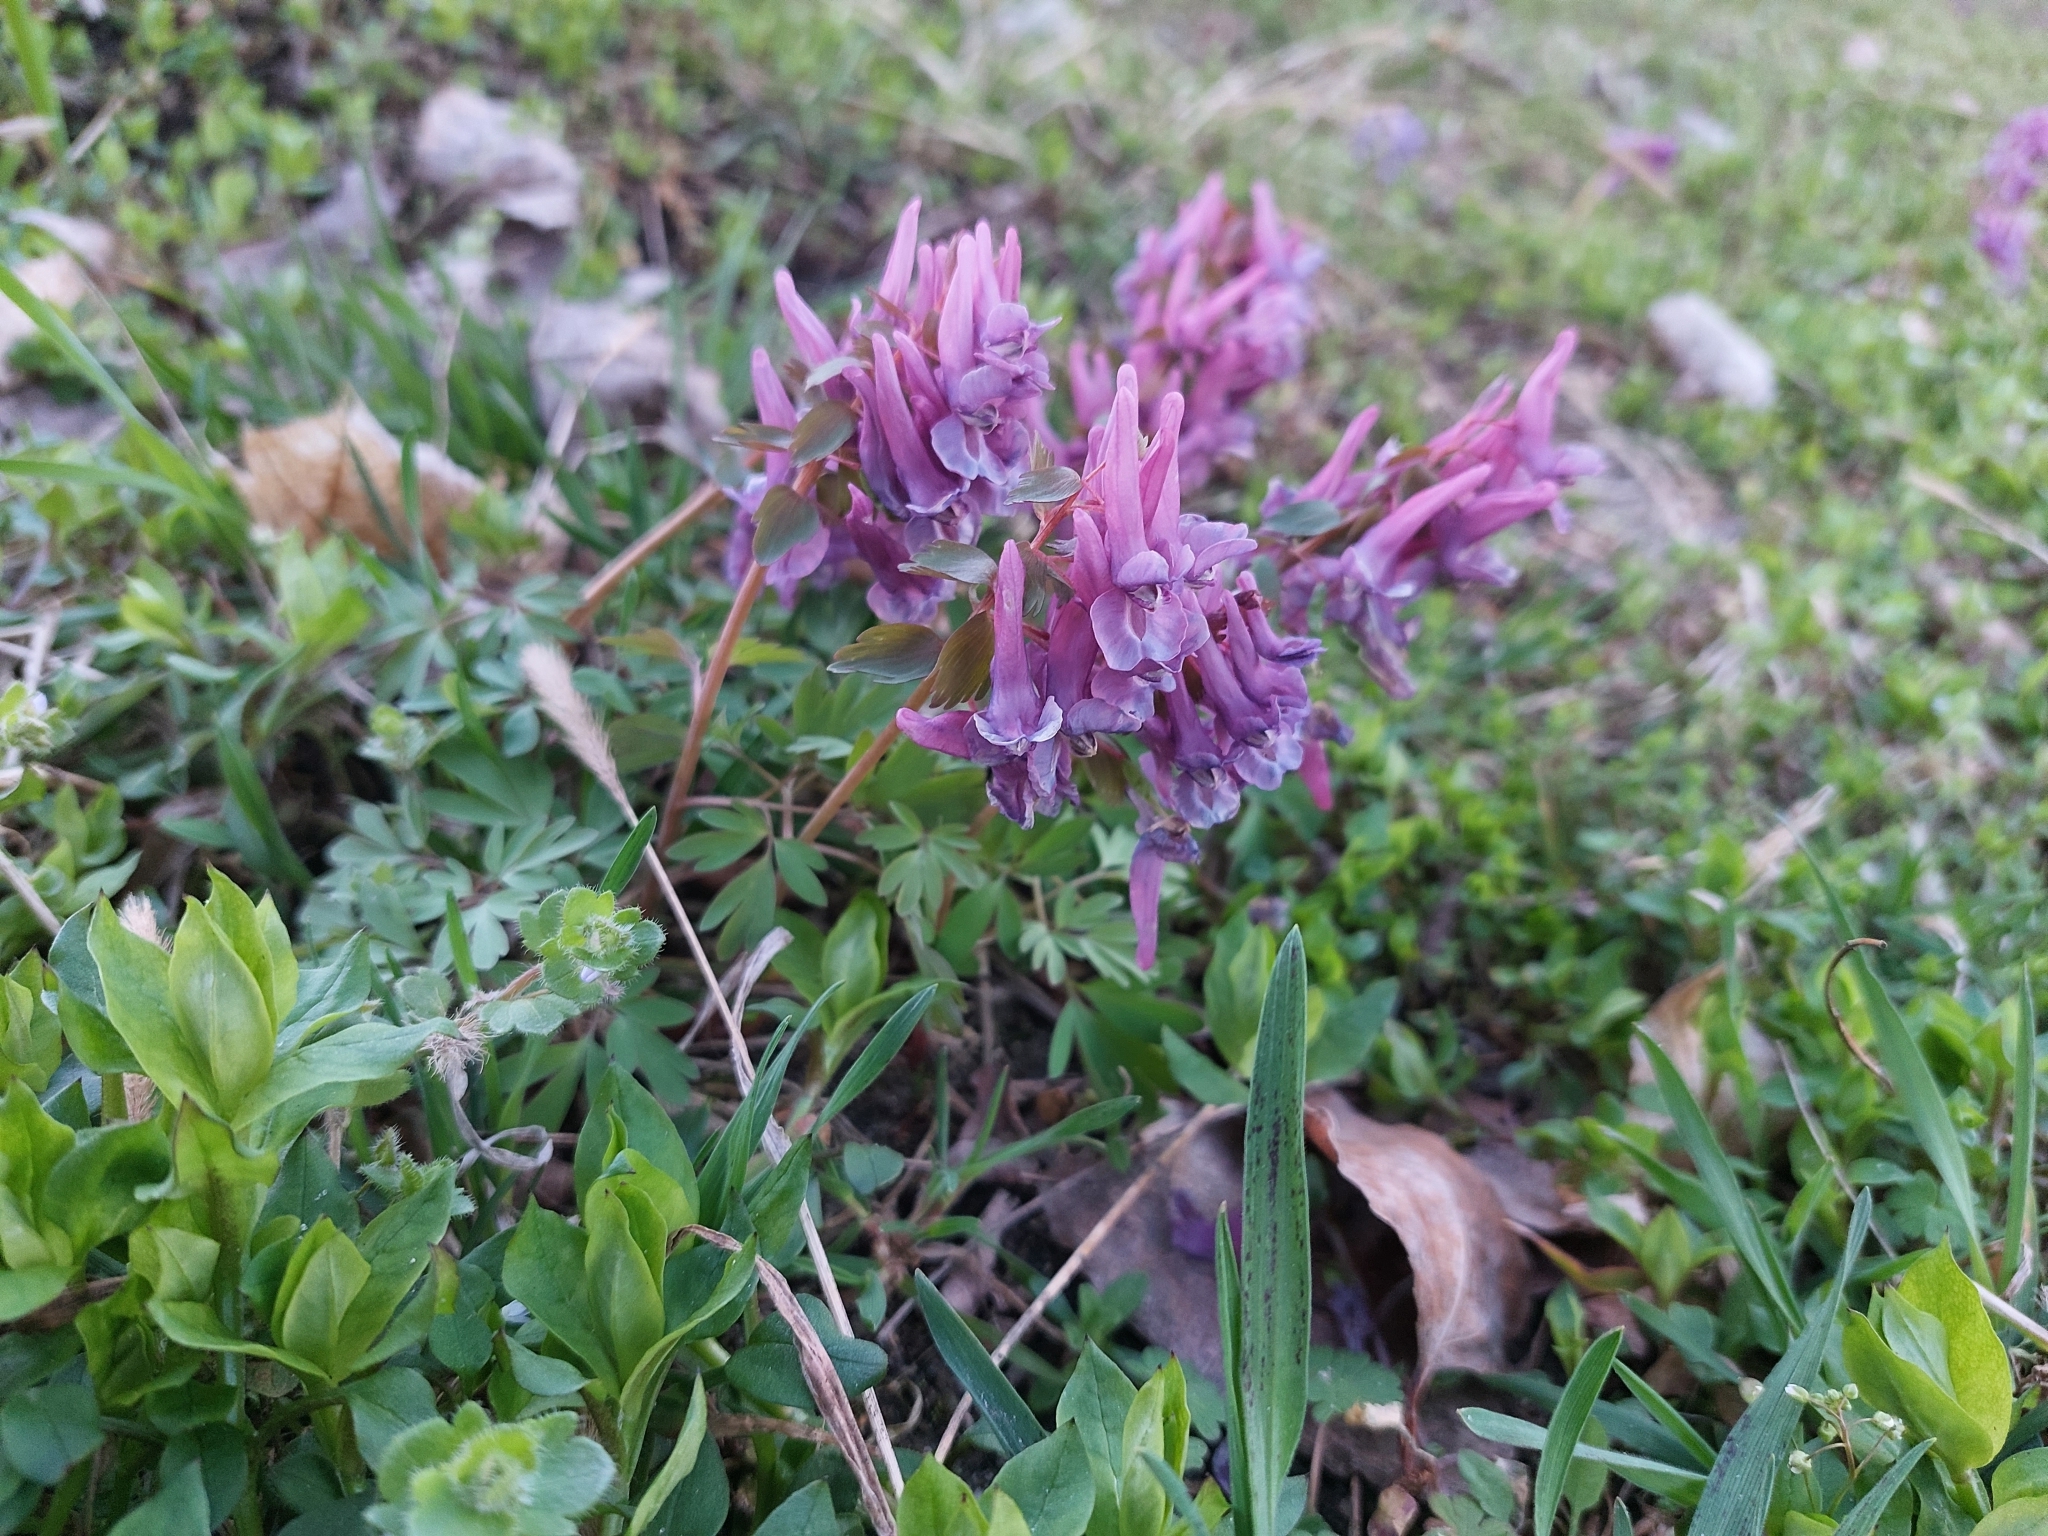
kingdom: Plantae
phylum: Tracheophyta
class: Magnoliopsida
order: Ranunculales
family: Papaveraceae
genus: Corydalis
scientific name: Corydalis solida
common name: Bird-in-a-bush
